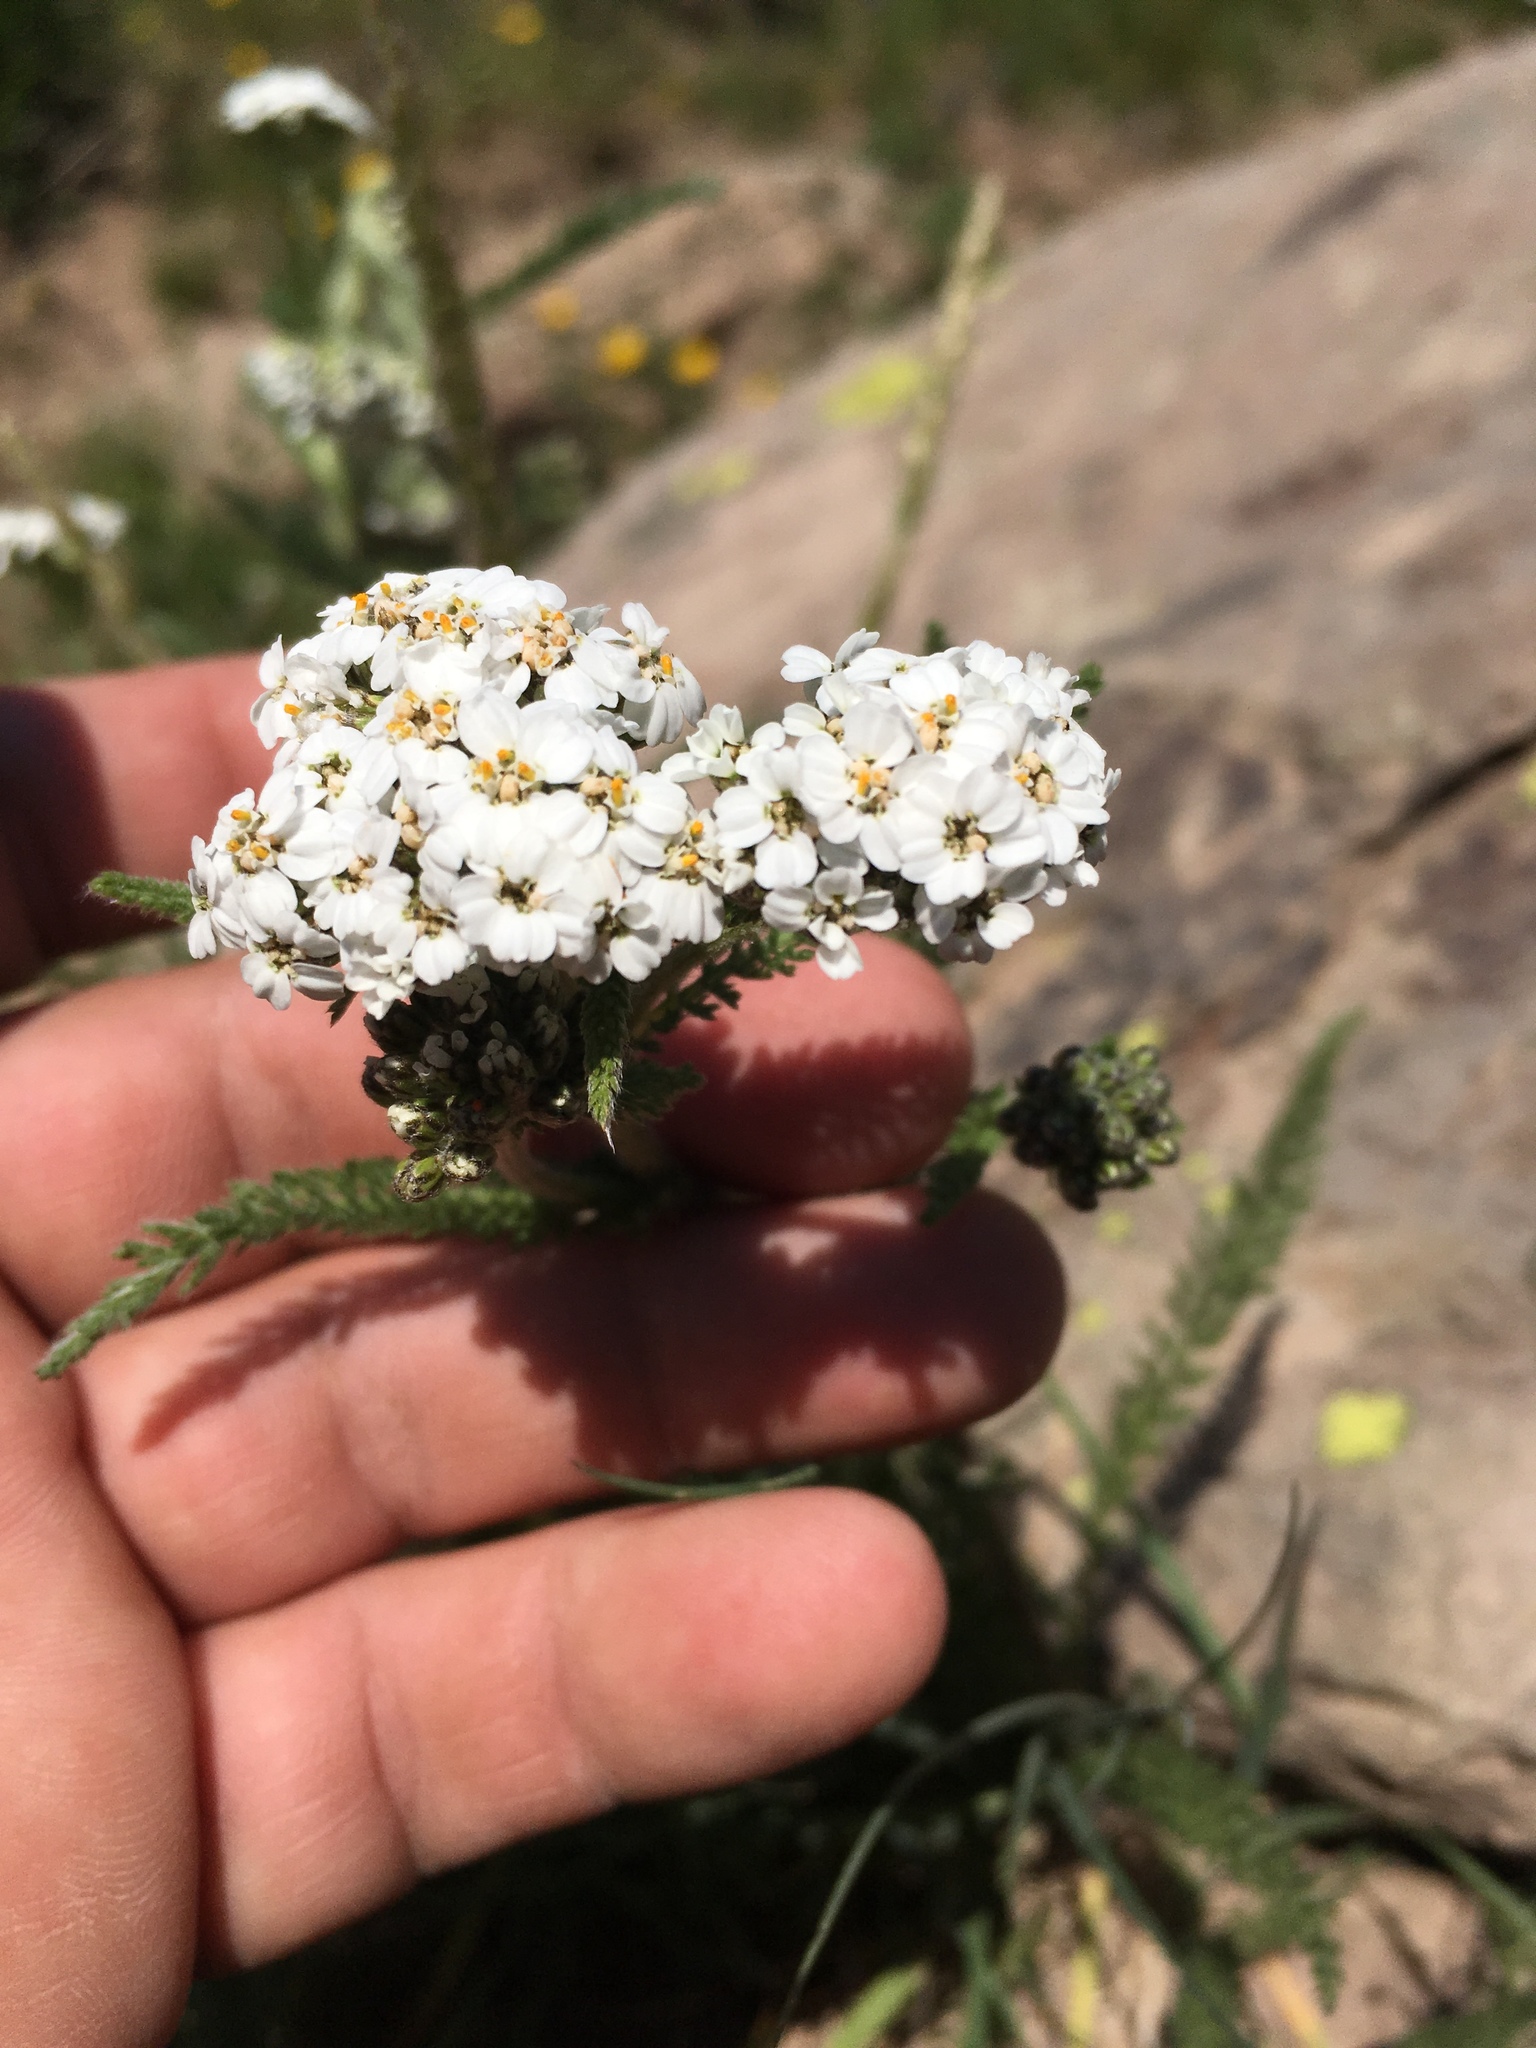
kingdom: Plantae
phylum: Tracheophyta
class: Magnoliopsida
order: Asterales
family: Asteraceae
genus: Achillea
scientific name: Achillea millefolium
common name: Yarrow
